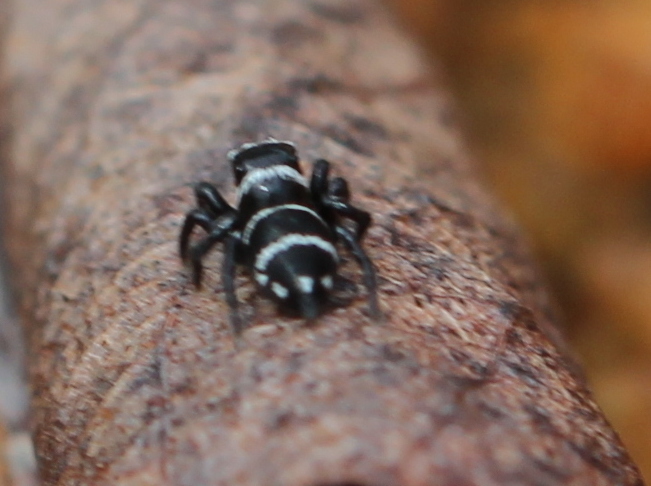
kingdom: Animalia
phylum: Arthropoda
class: Arachnida
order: Araneae
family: Salticidae
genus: Langona
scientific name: Langona davidi
